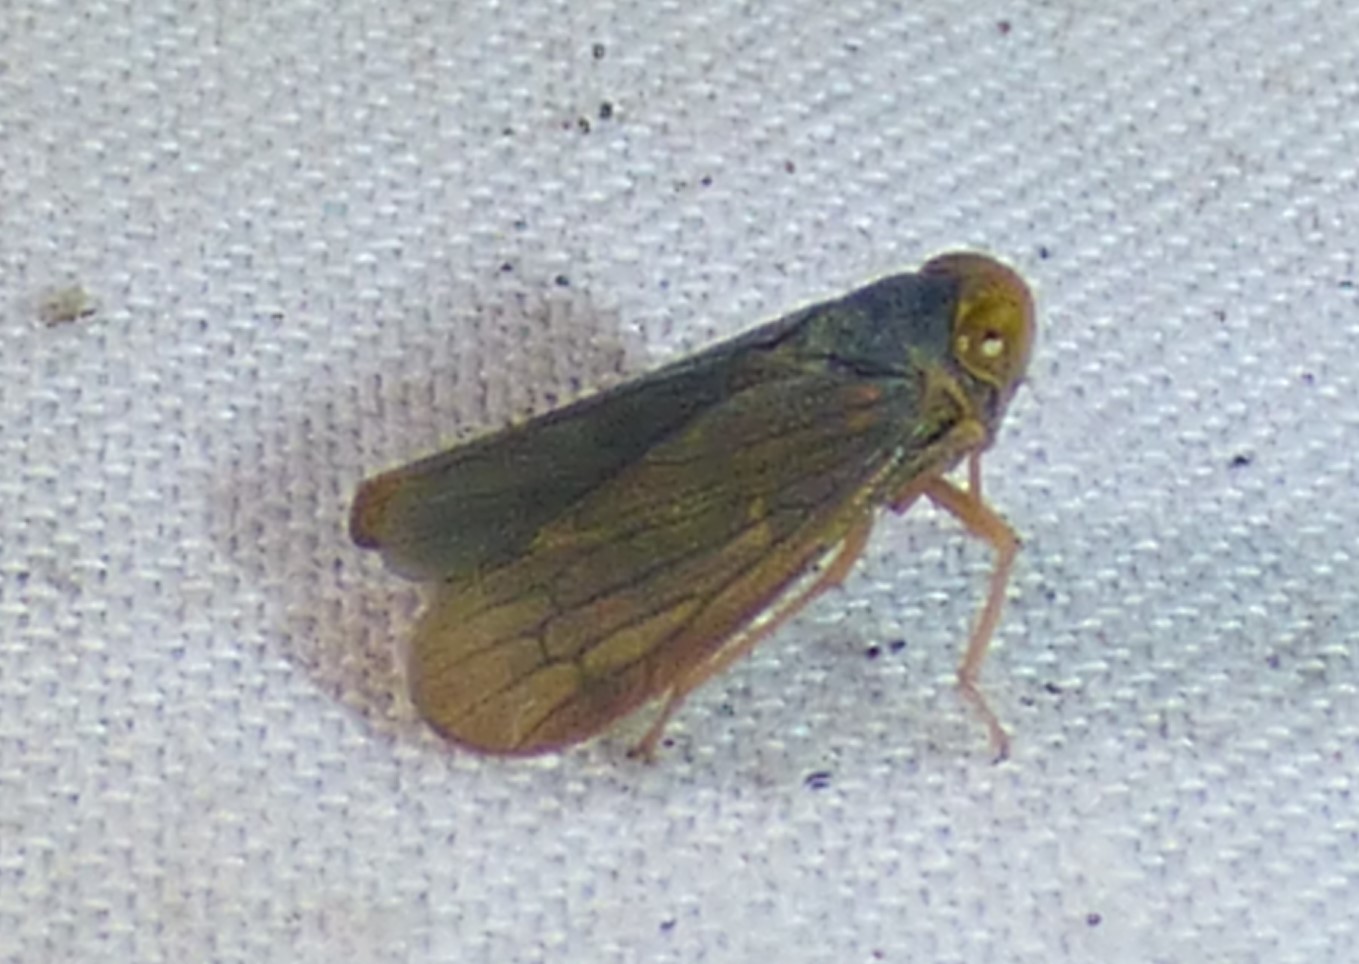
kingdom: Animalia
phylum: Arthropoda
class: Insecta
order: Hemiptera
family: Cicadellidae
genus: Jikradia
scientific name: Jikradia olitoria
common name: Coppery leafhopper
